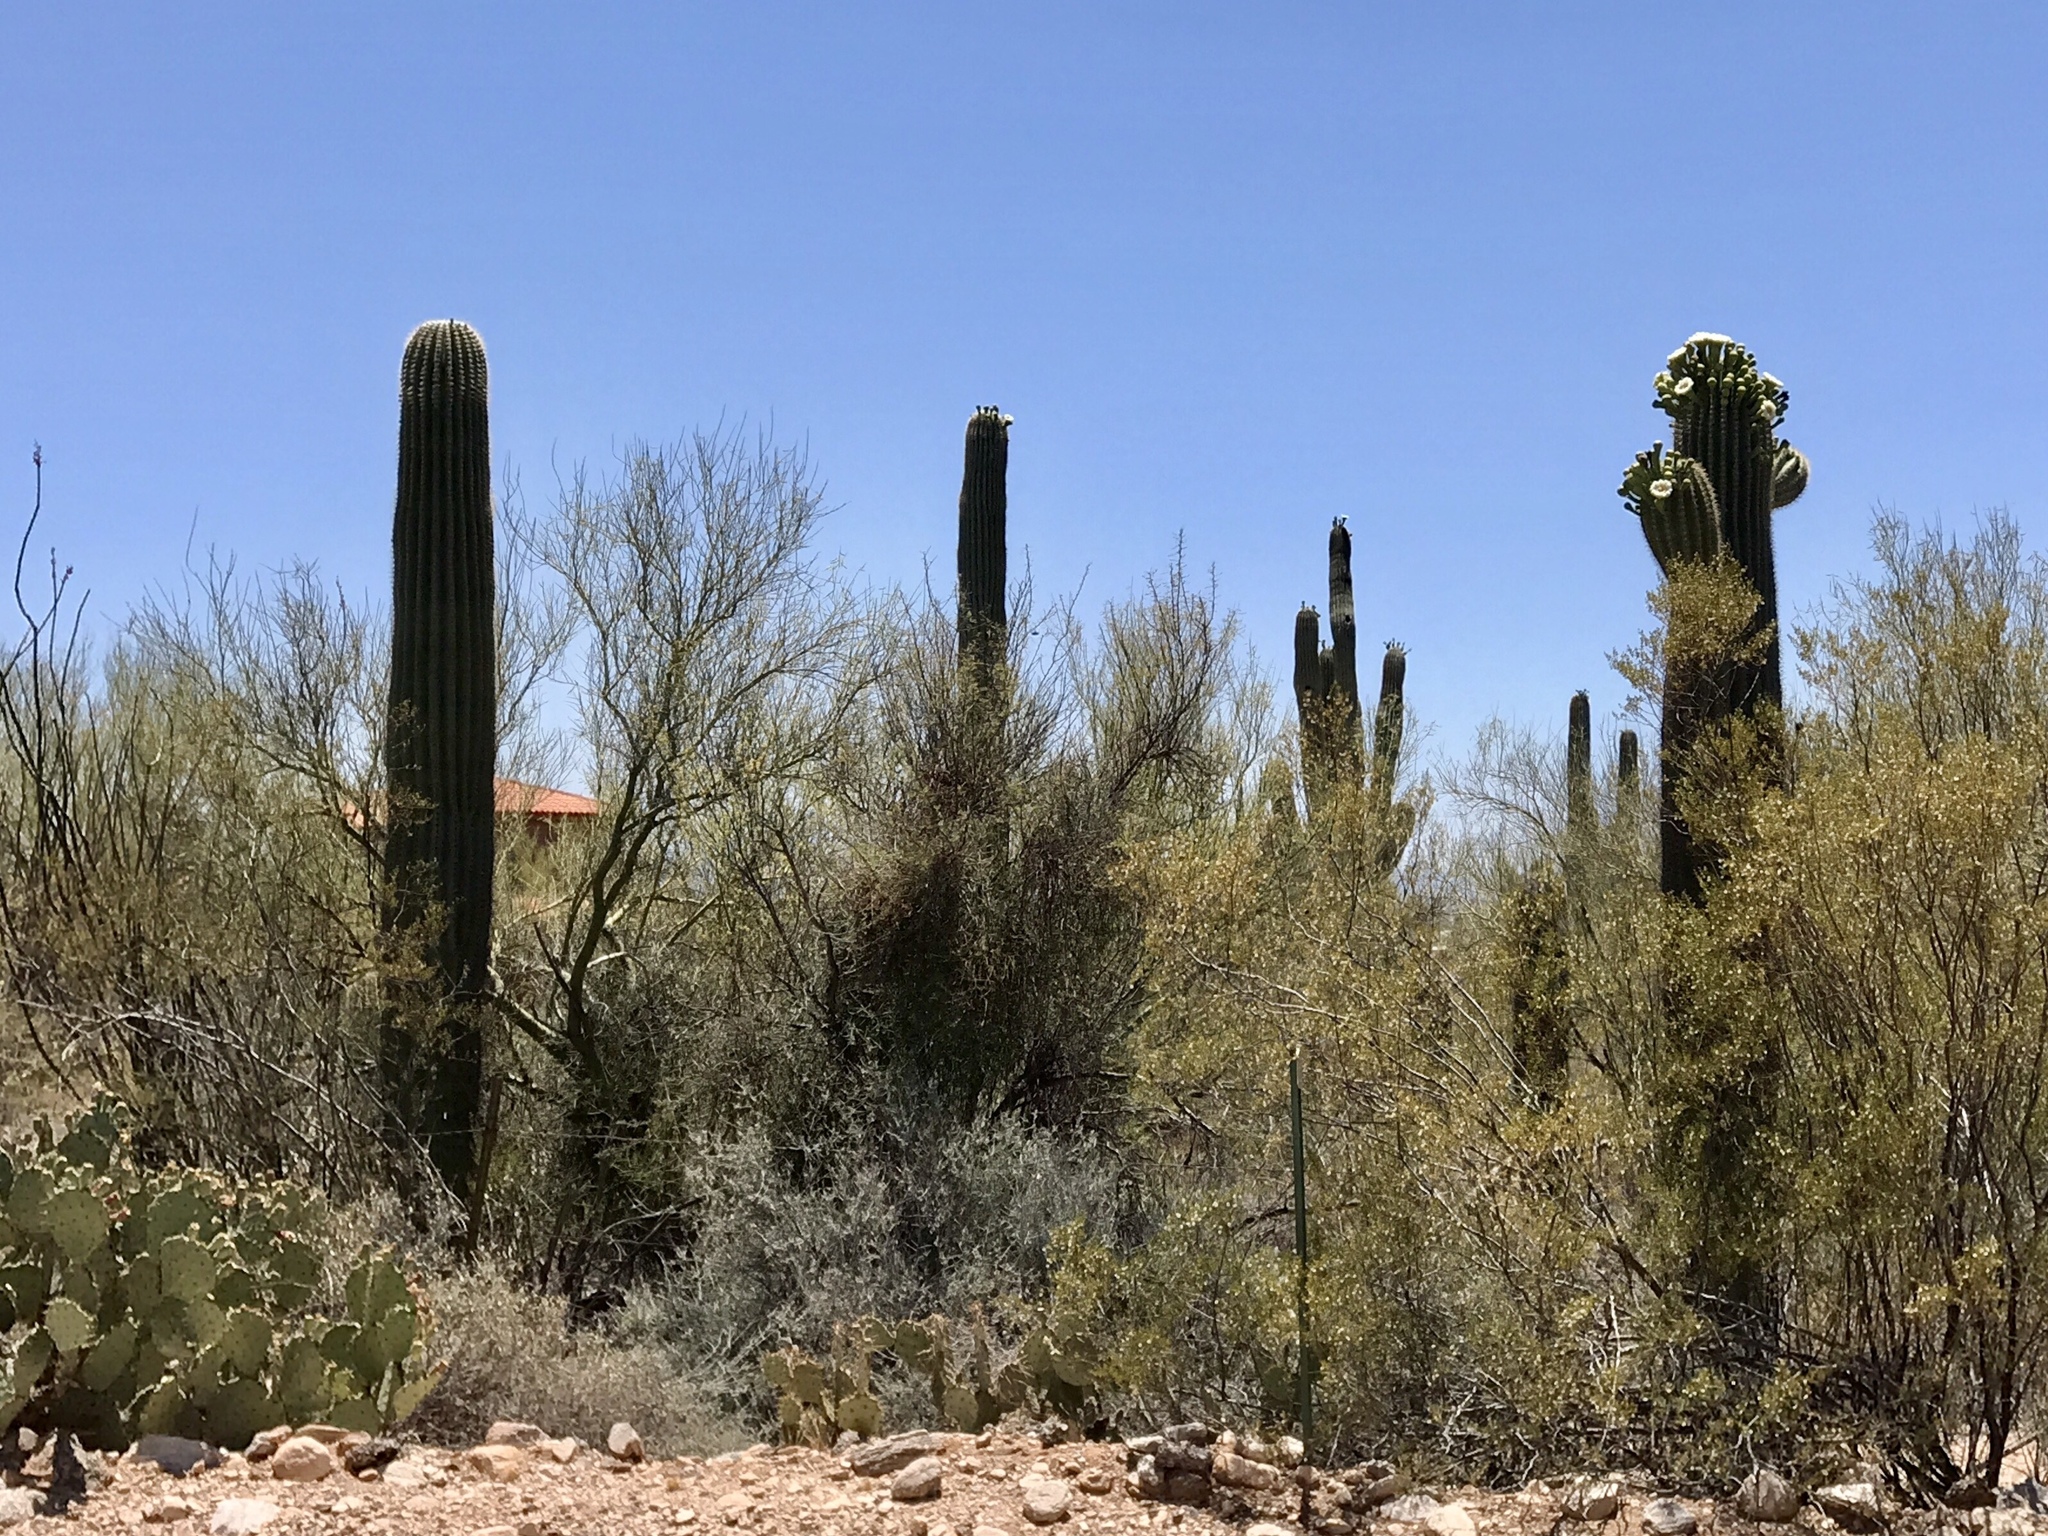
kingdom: Plantae
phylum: Tracheophyta
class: Magnoliopsida
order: Caryophyllales
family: Cactaceae
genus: Carnegiea
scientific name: Carnegiea gigantea
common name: Saguaro
